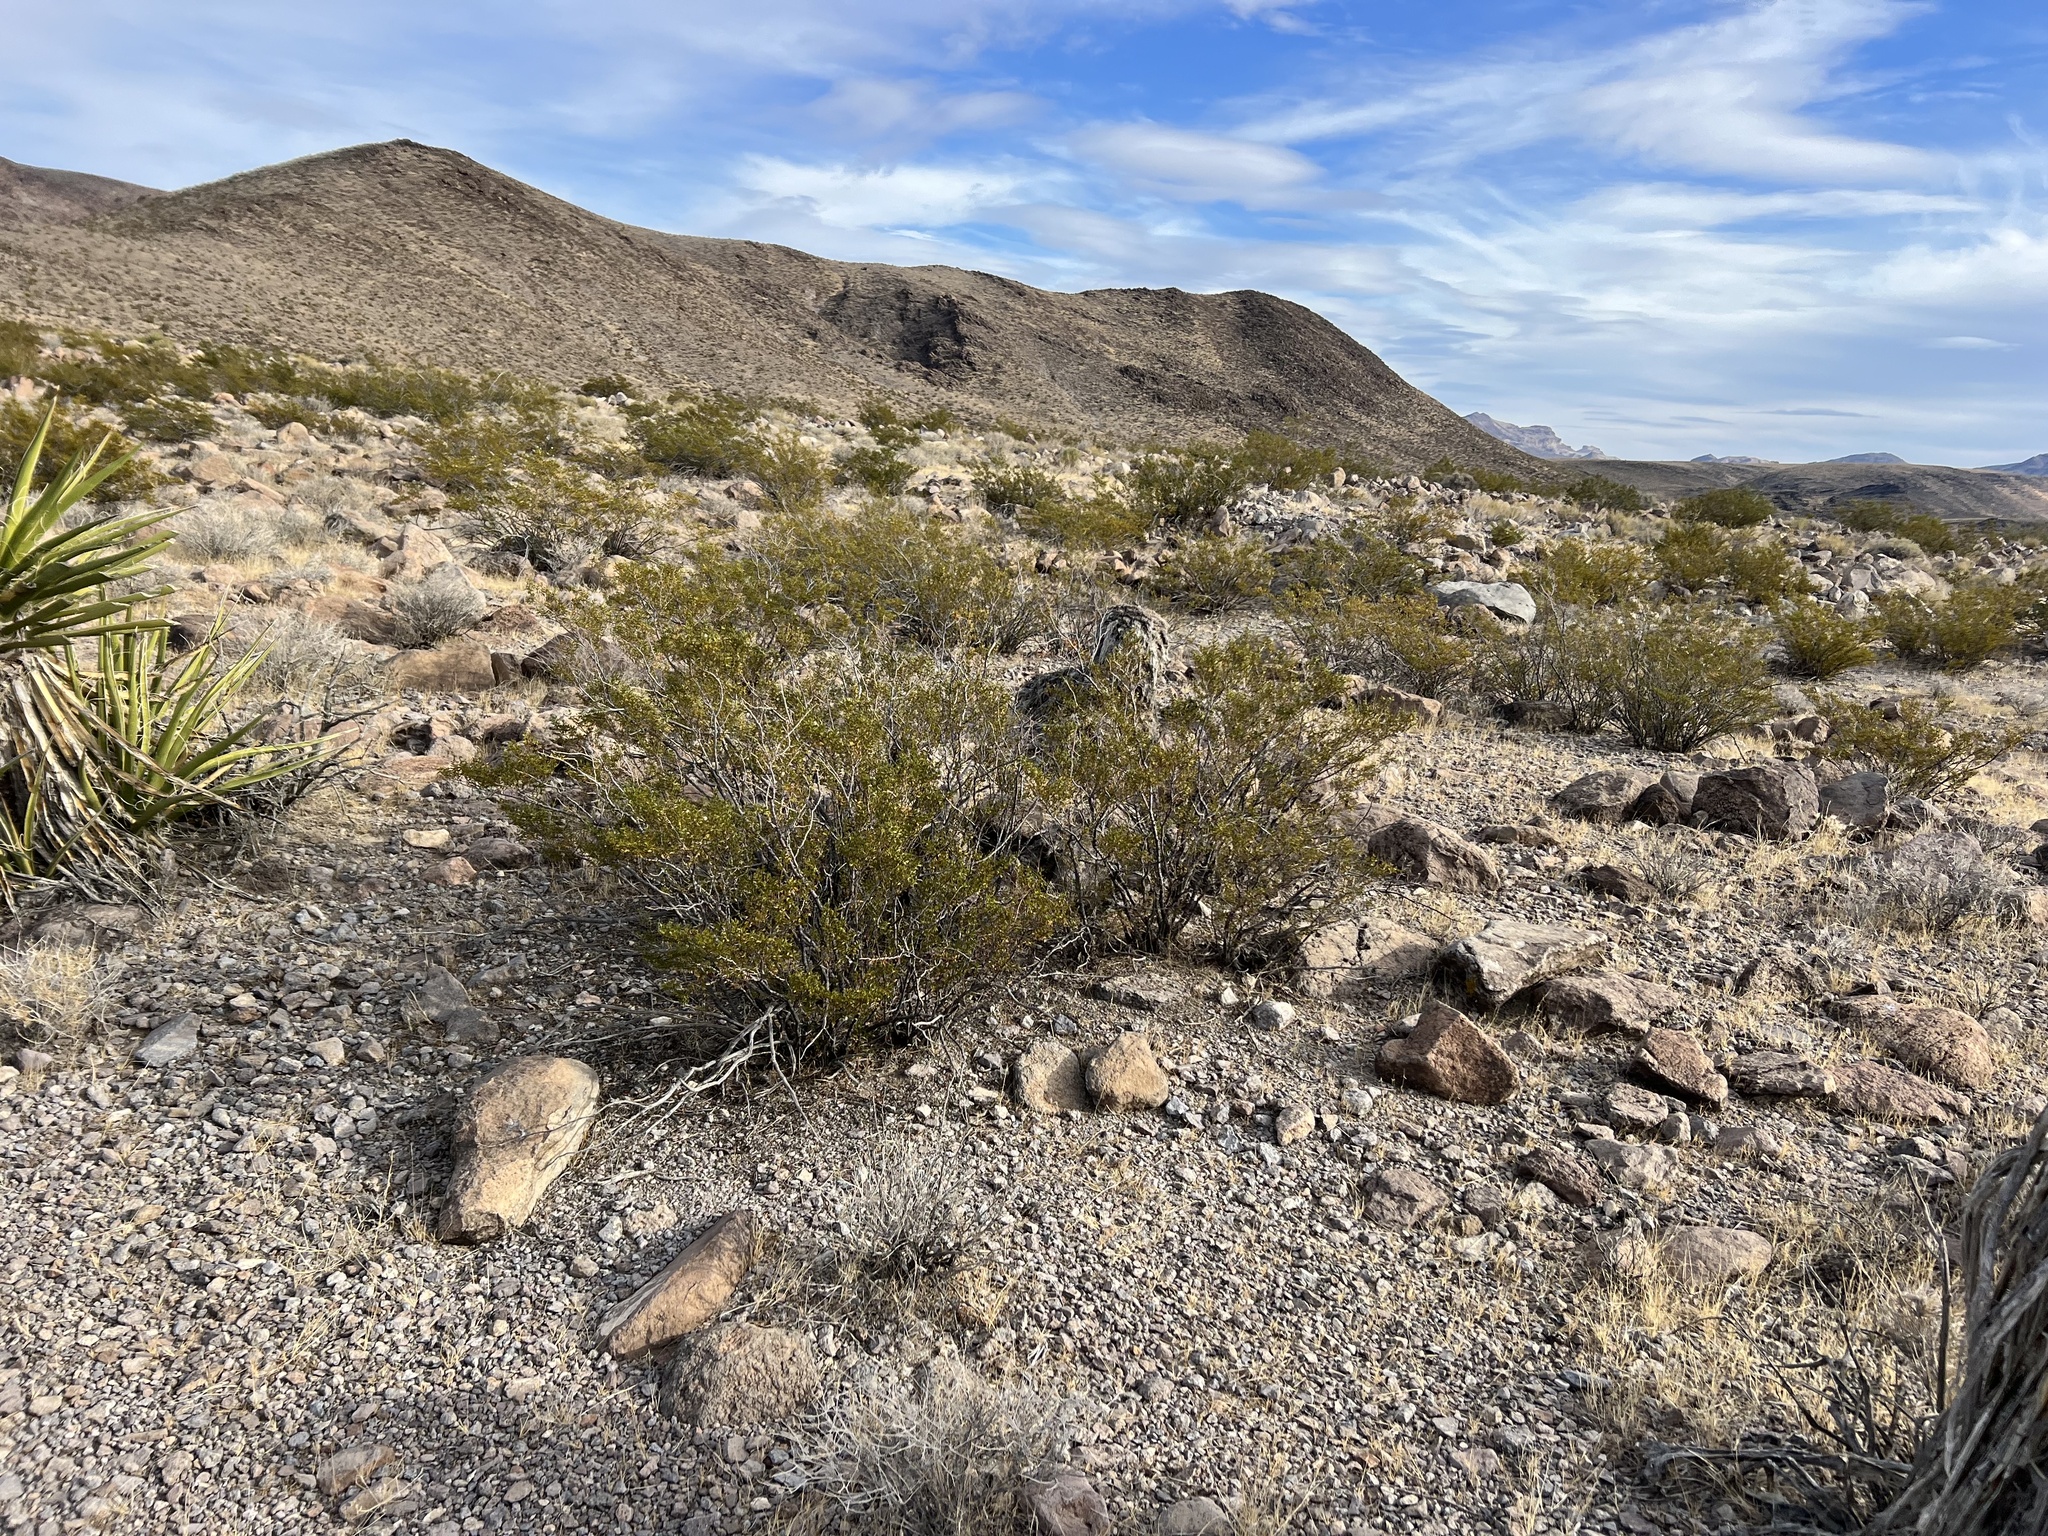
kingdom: Plantae
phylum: Tracheophyta
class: Magnoliopsida
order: Zygophyllales
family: Zygophyllaceae
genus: Larrea
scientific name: Larrea tridentata
